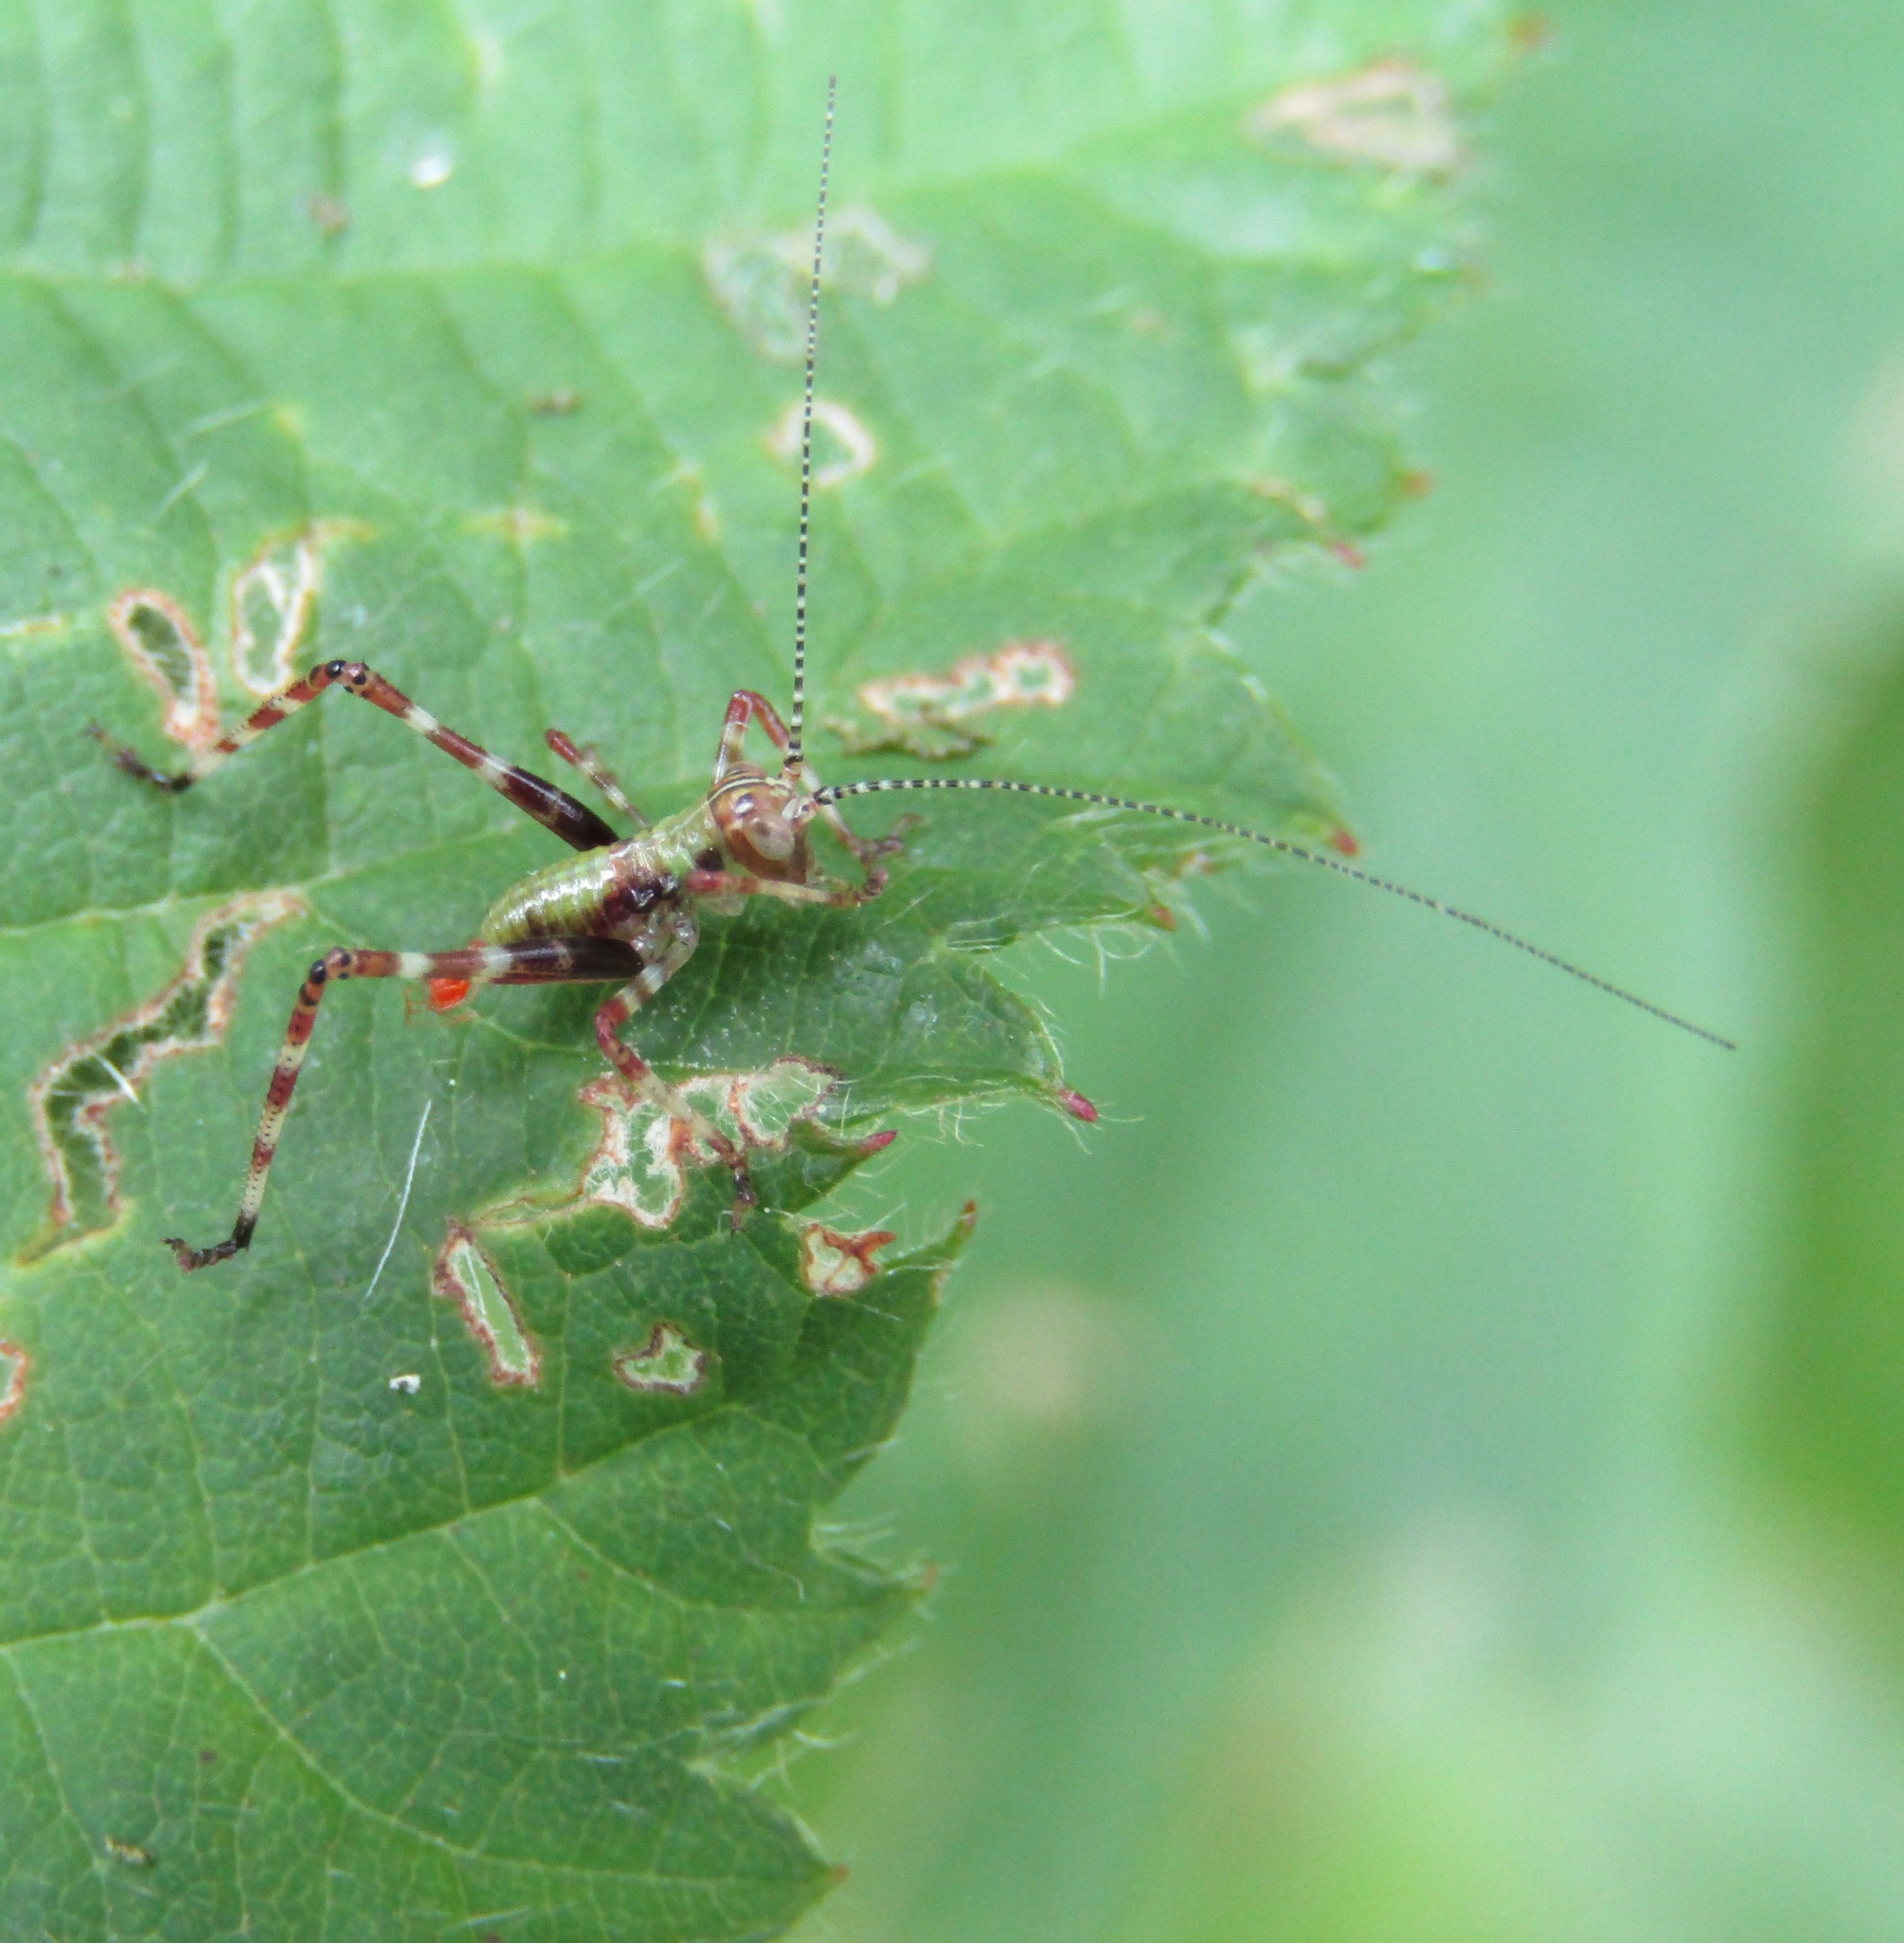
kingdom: Animalia
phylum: Arthropoda
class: Insecta
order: Orthoptera
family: Tettigoniidae
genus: Caedicia
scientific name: Caedicia simplex
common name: Common garden katydid
